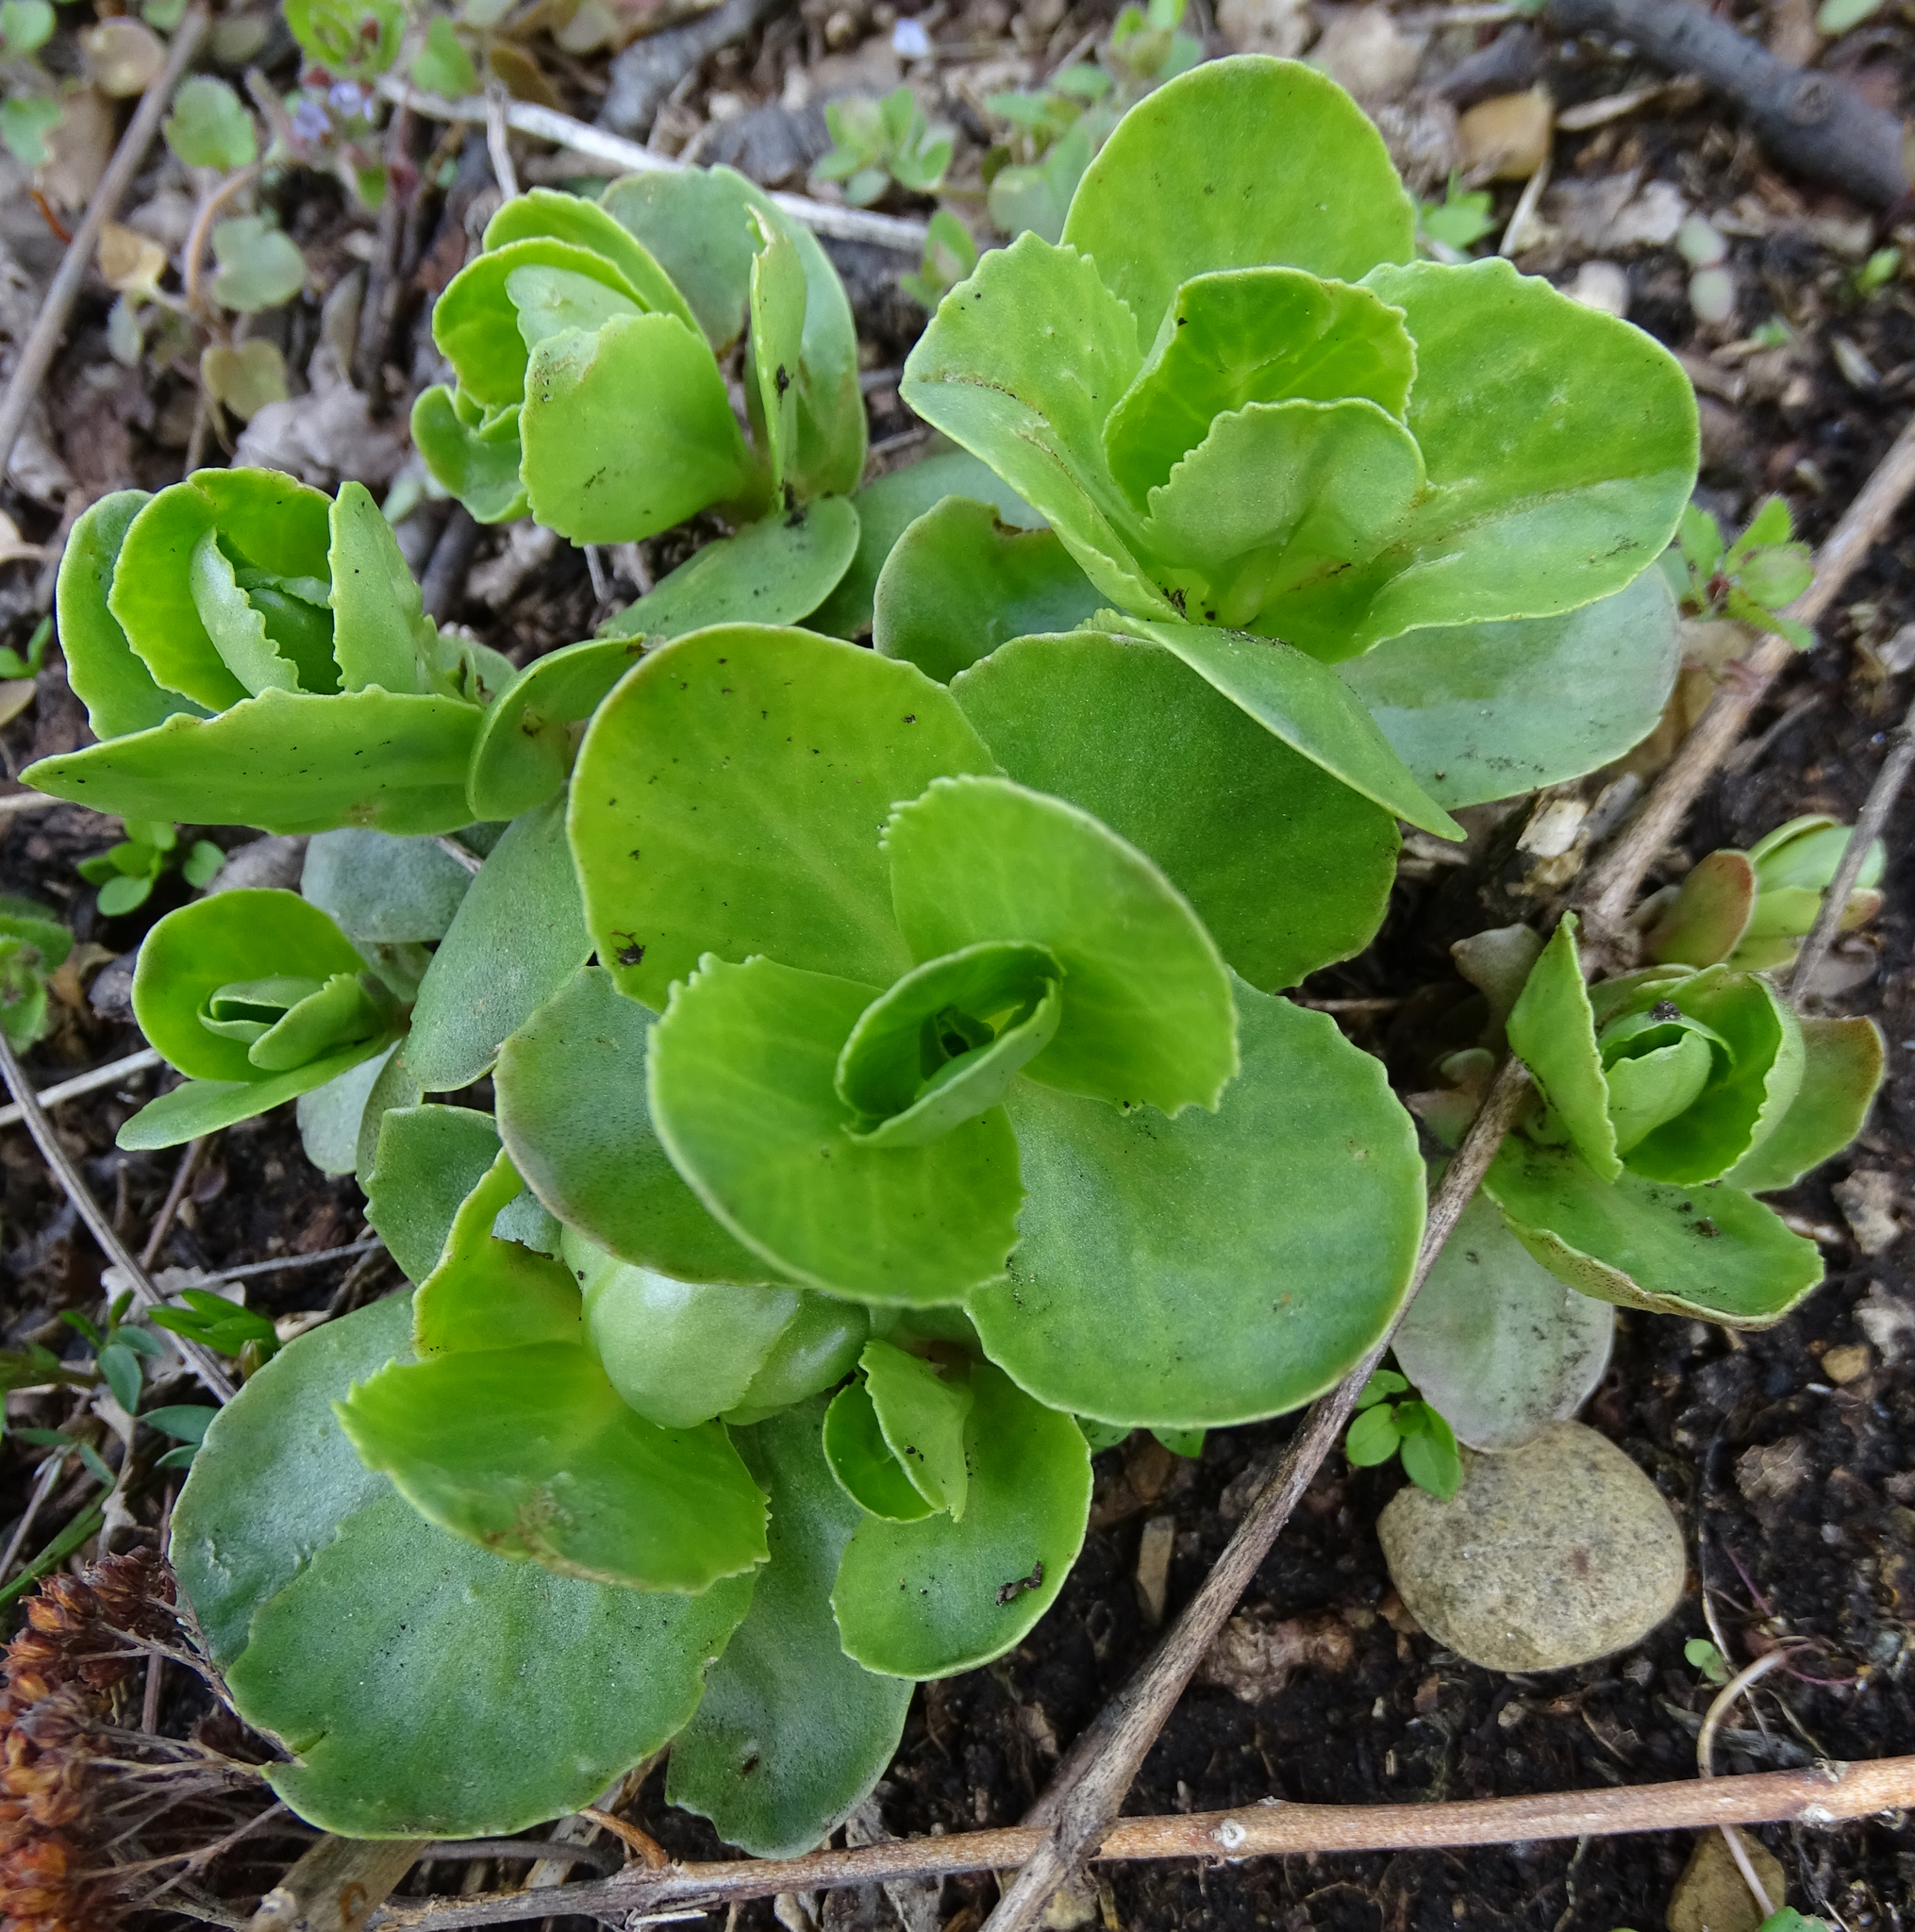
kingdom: Plantae
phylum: Tracheophyta
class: Magnoliopsida
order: Saxifragales
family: Crassulaceae
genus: Hylotelephium
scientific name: Hylotelephium maximum
